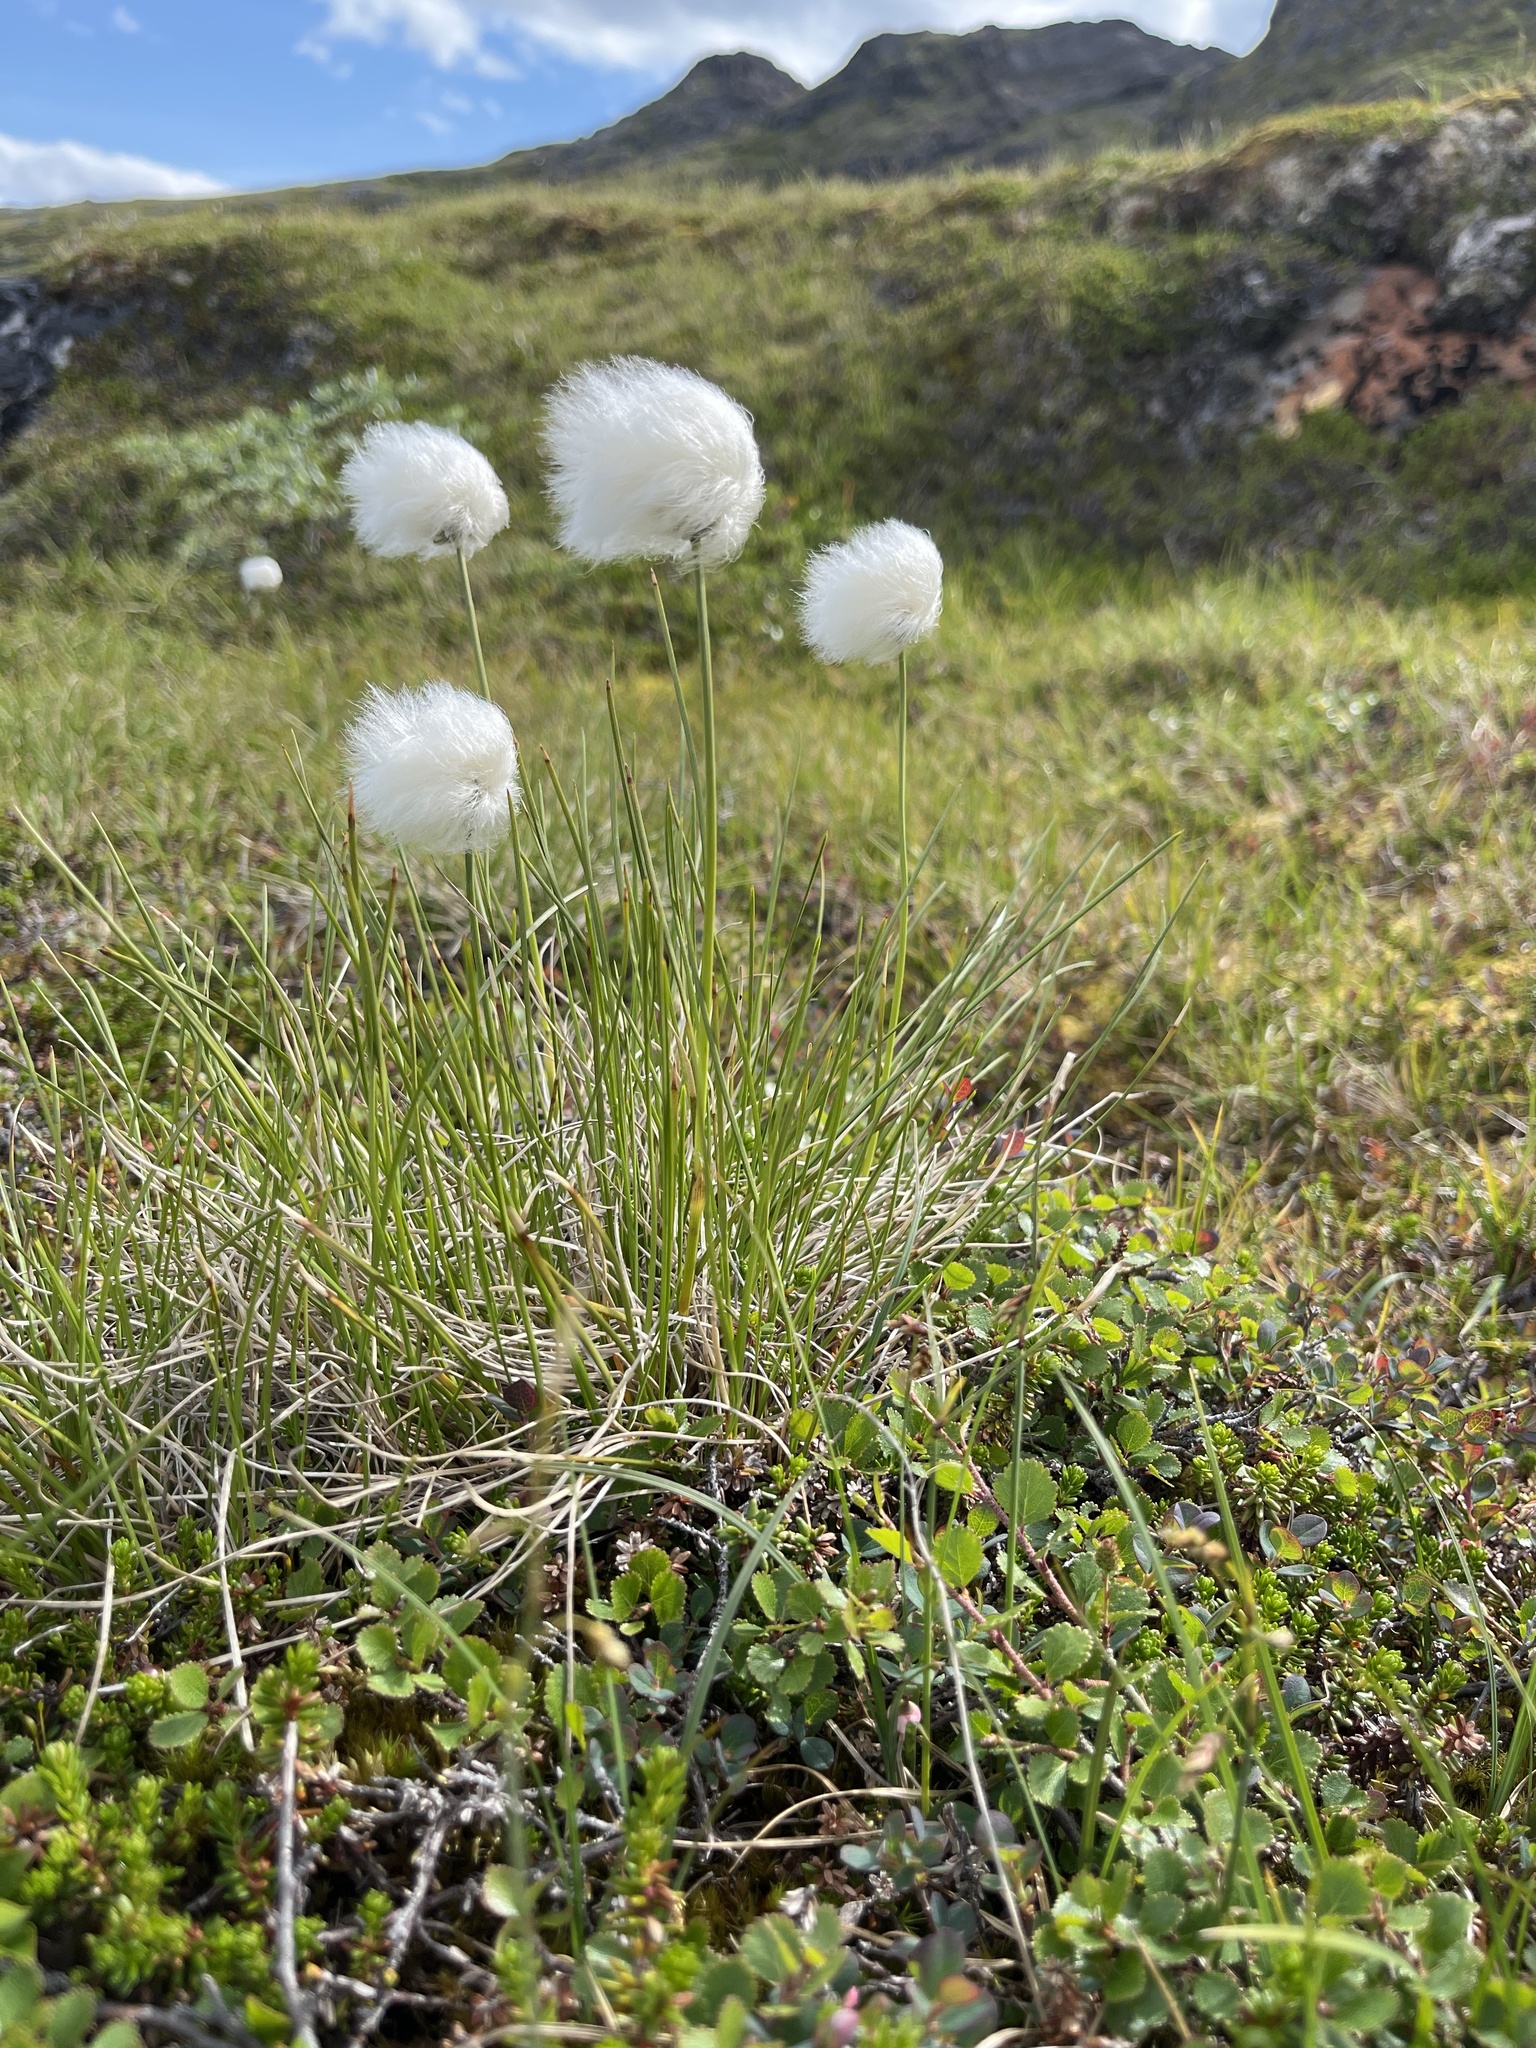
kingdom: Plantae
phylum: Tracheophyta
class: Liliopsida
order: Poales
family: Cyperaceae
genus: Eriophorum
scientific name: Eriophorum vaginatum
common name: Hare's-tail cottongrass
